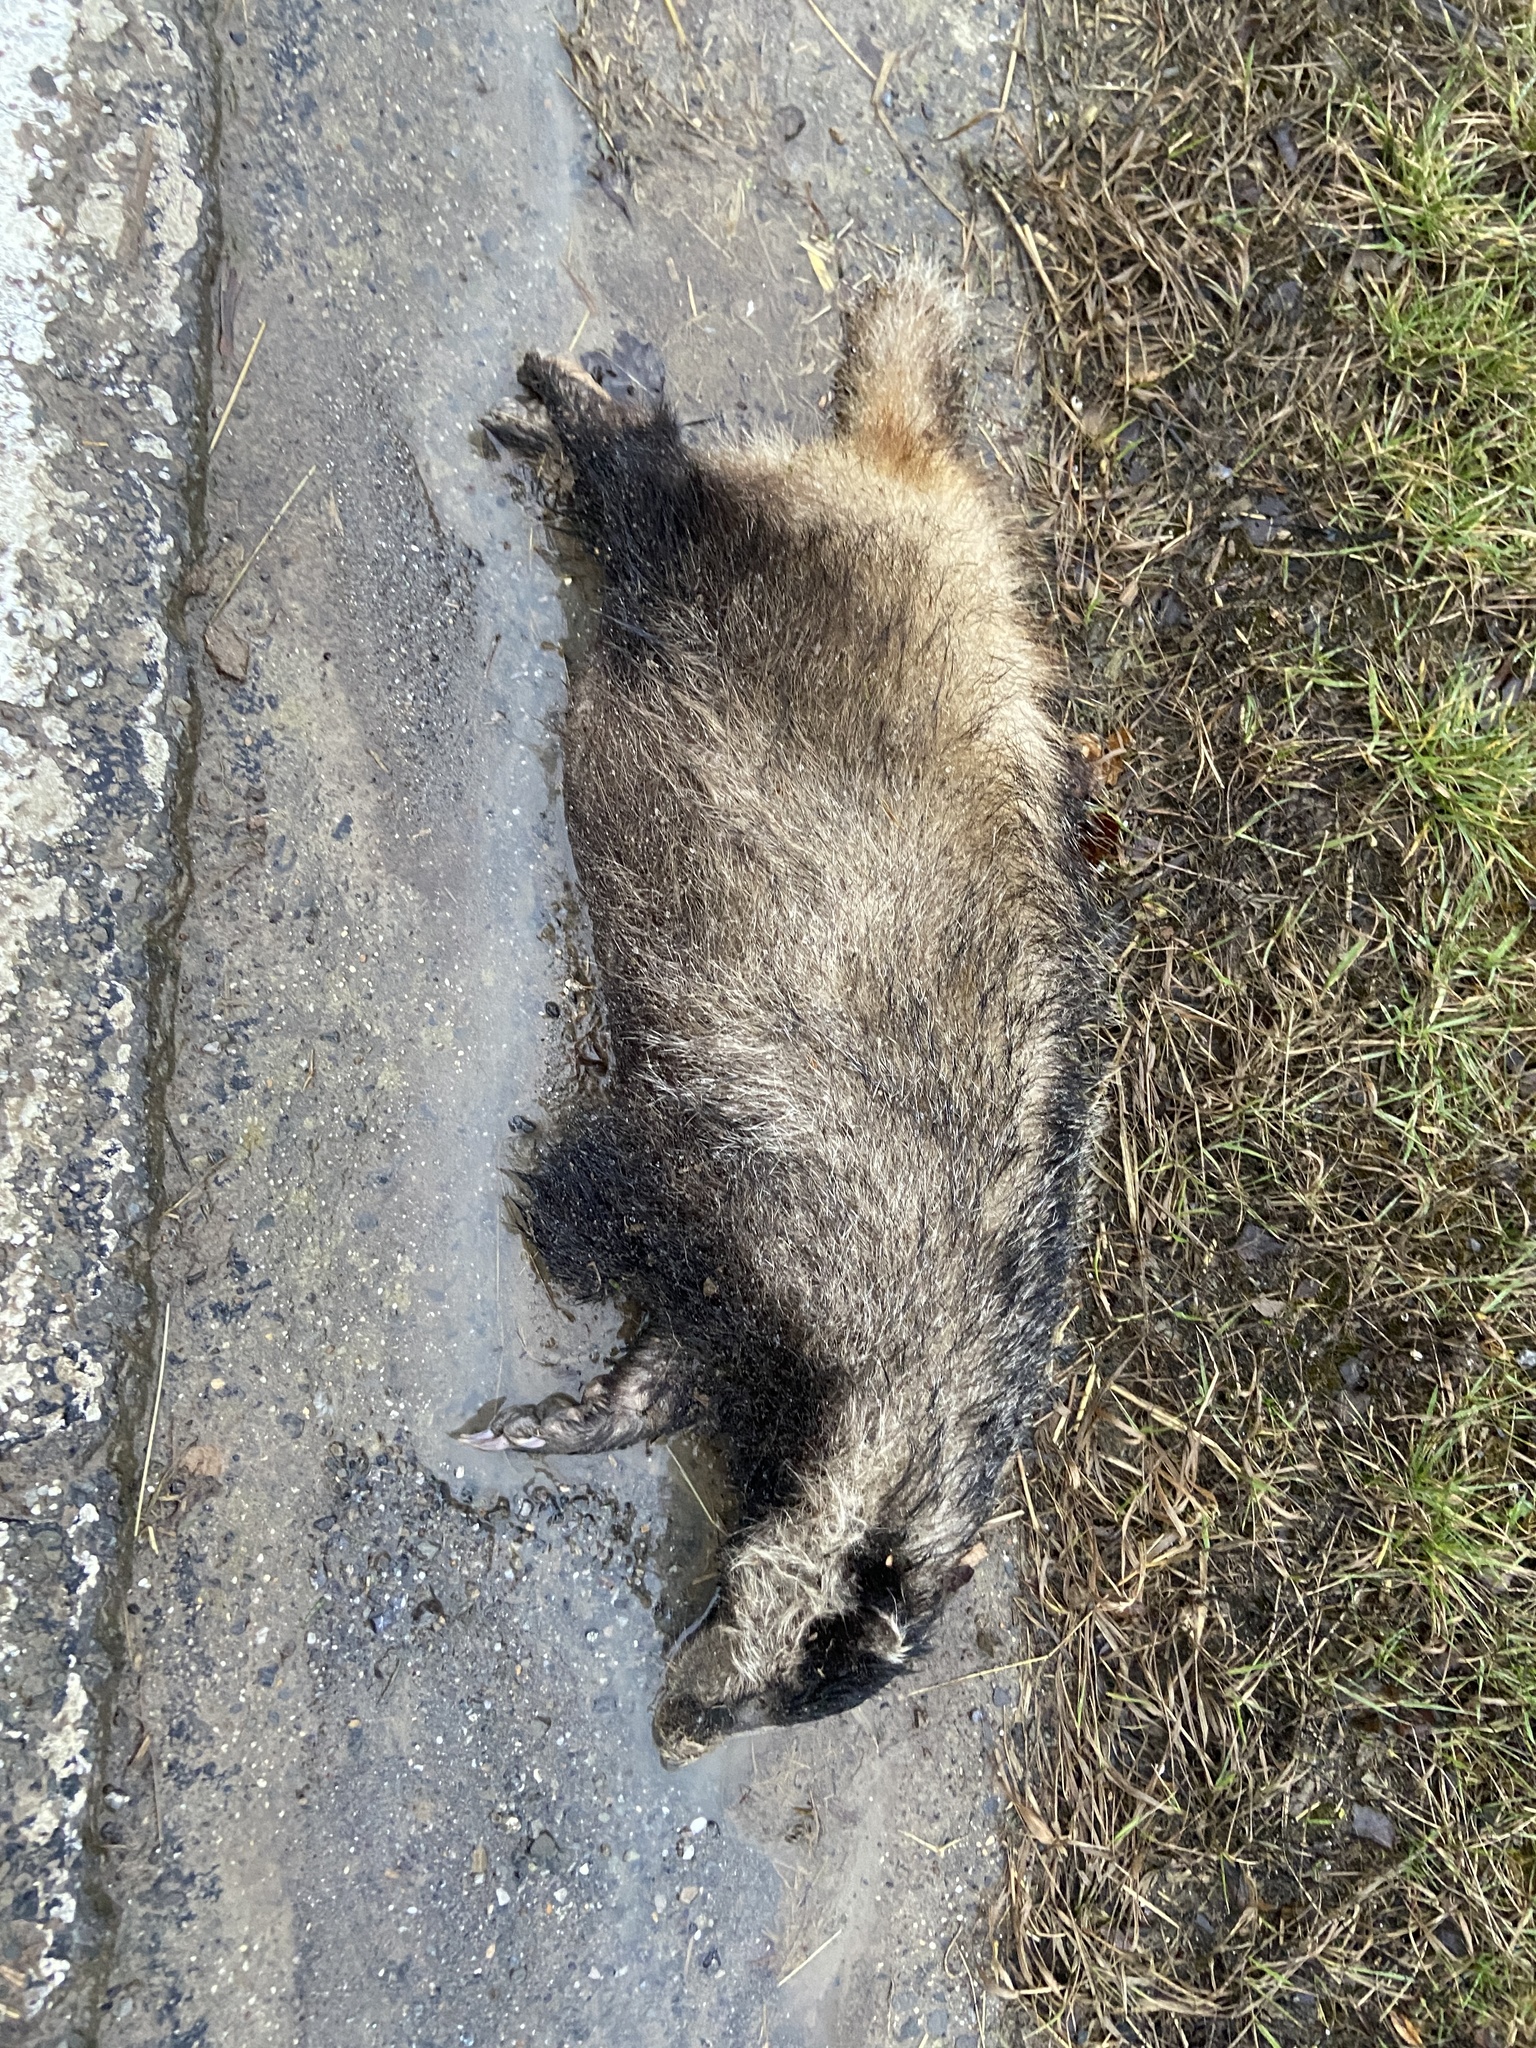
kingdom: Animalia
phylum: Chordata
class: Mammalia
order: Carnivora
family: Mustelidae
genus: Meles
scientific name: Meles meles
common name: Eurasian badger
